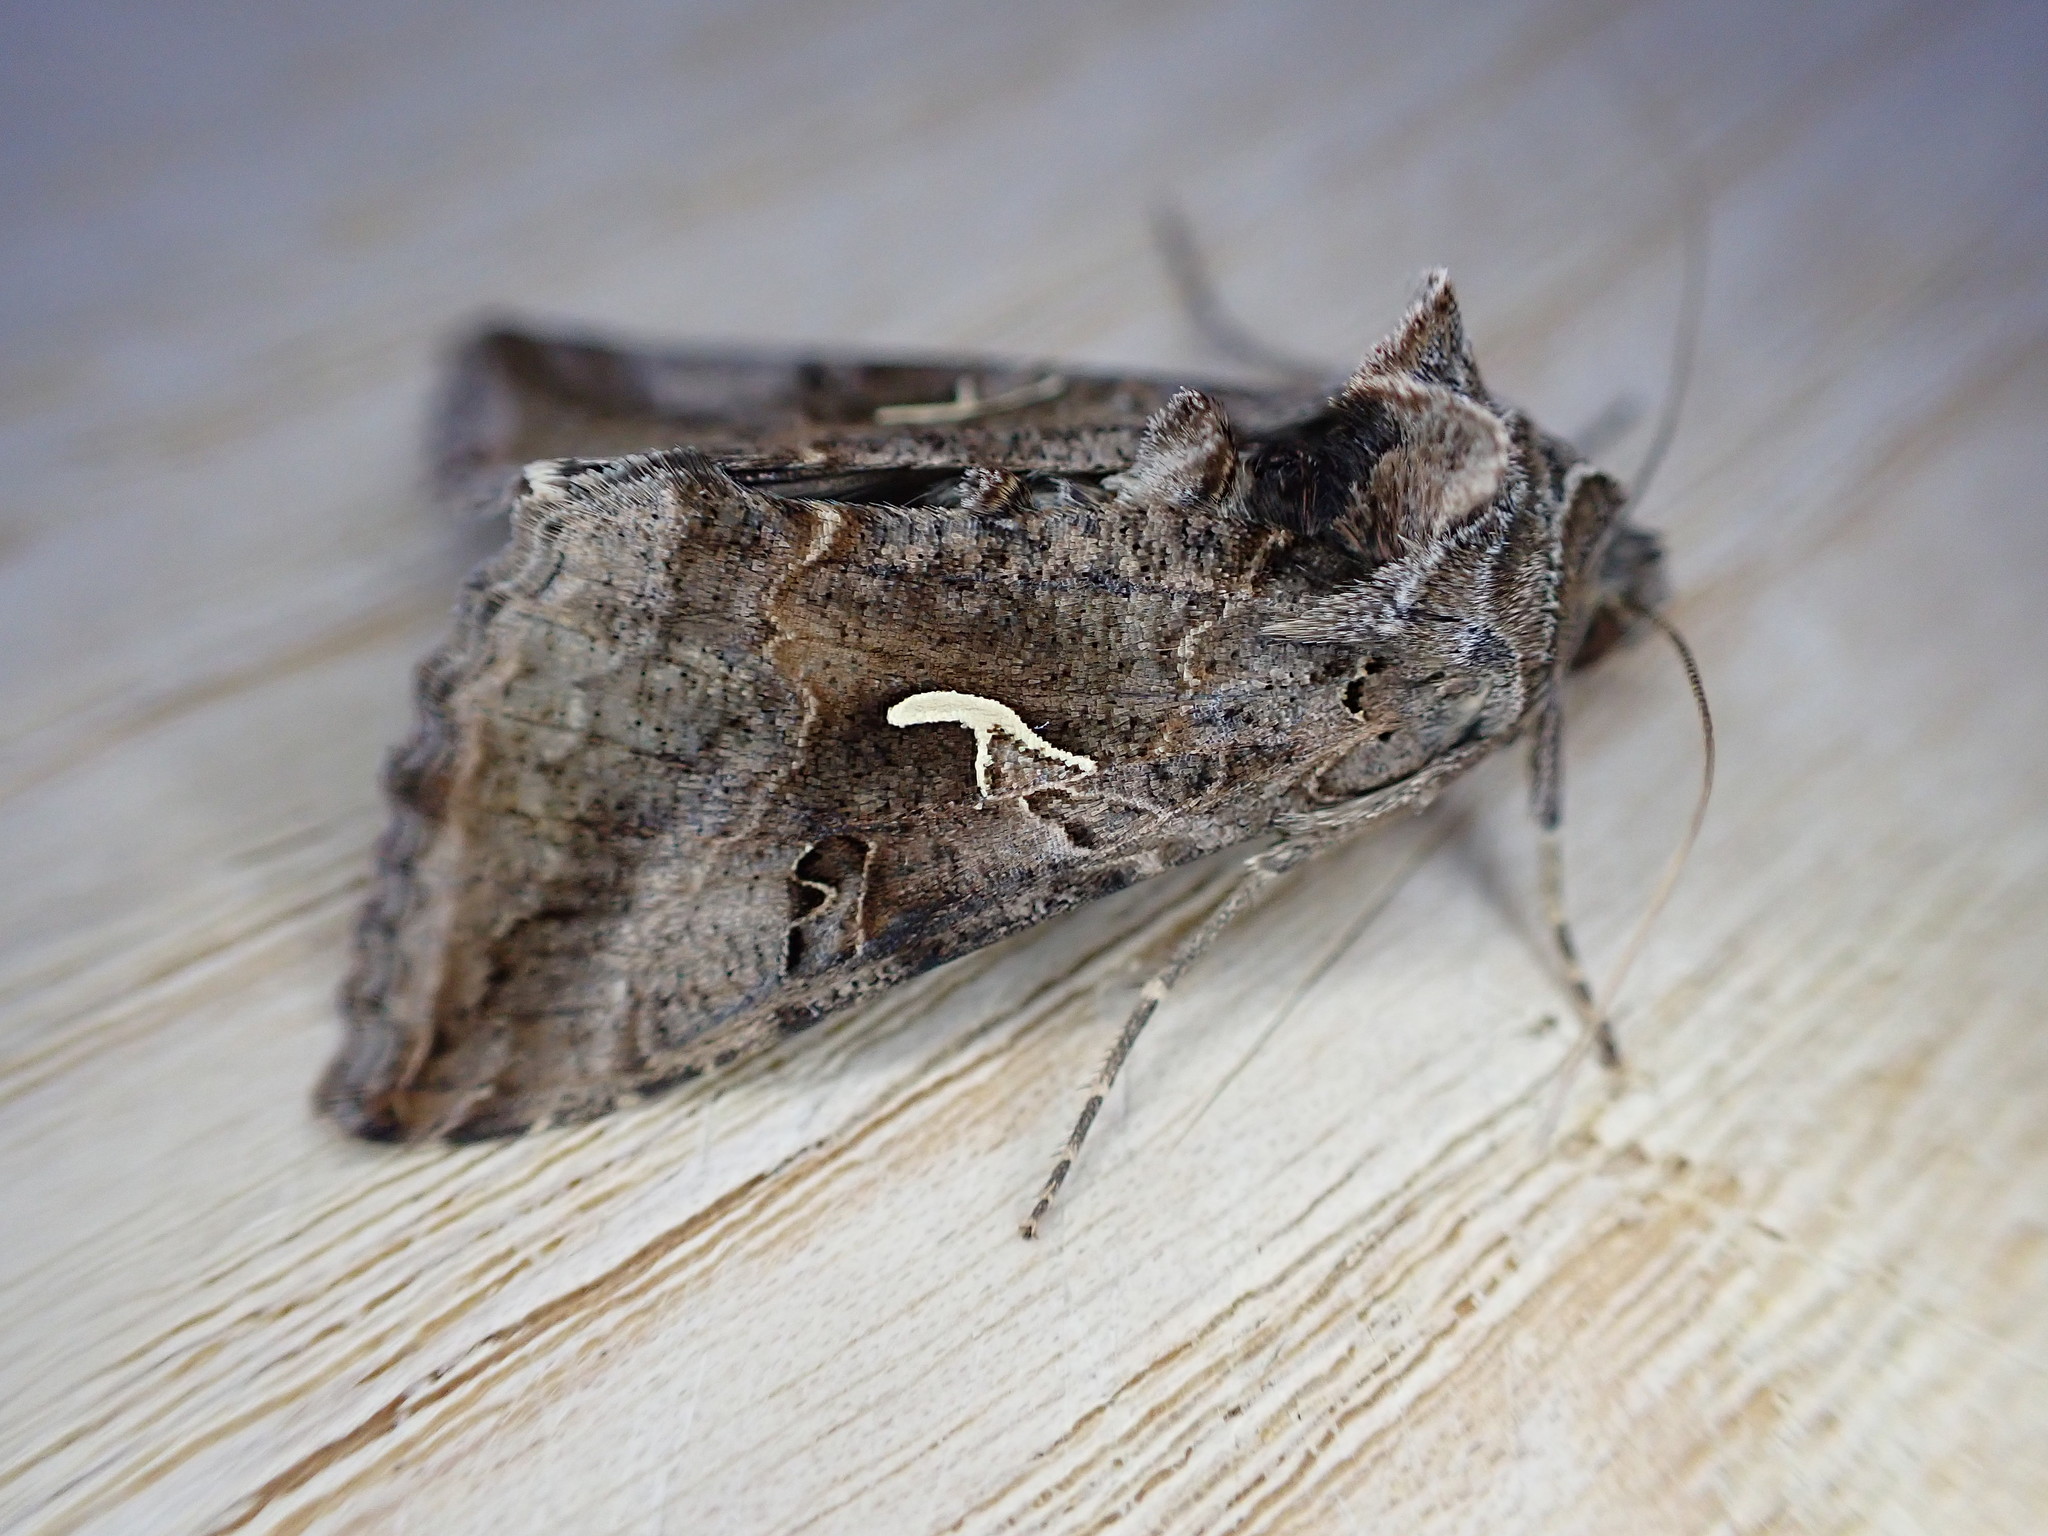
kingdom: Animalia
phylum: Arthropoda
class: Insecta
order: Lepidoptera
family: Noctuidae
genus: Autographa
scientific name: Autographa gamma
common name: Silver y
